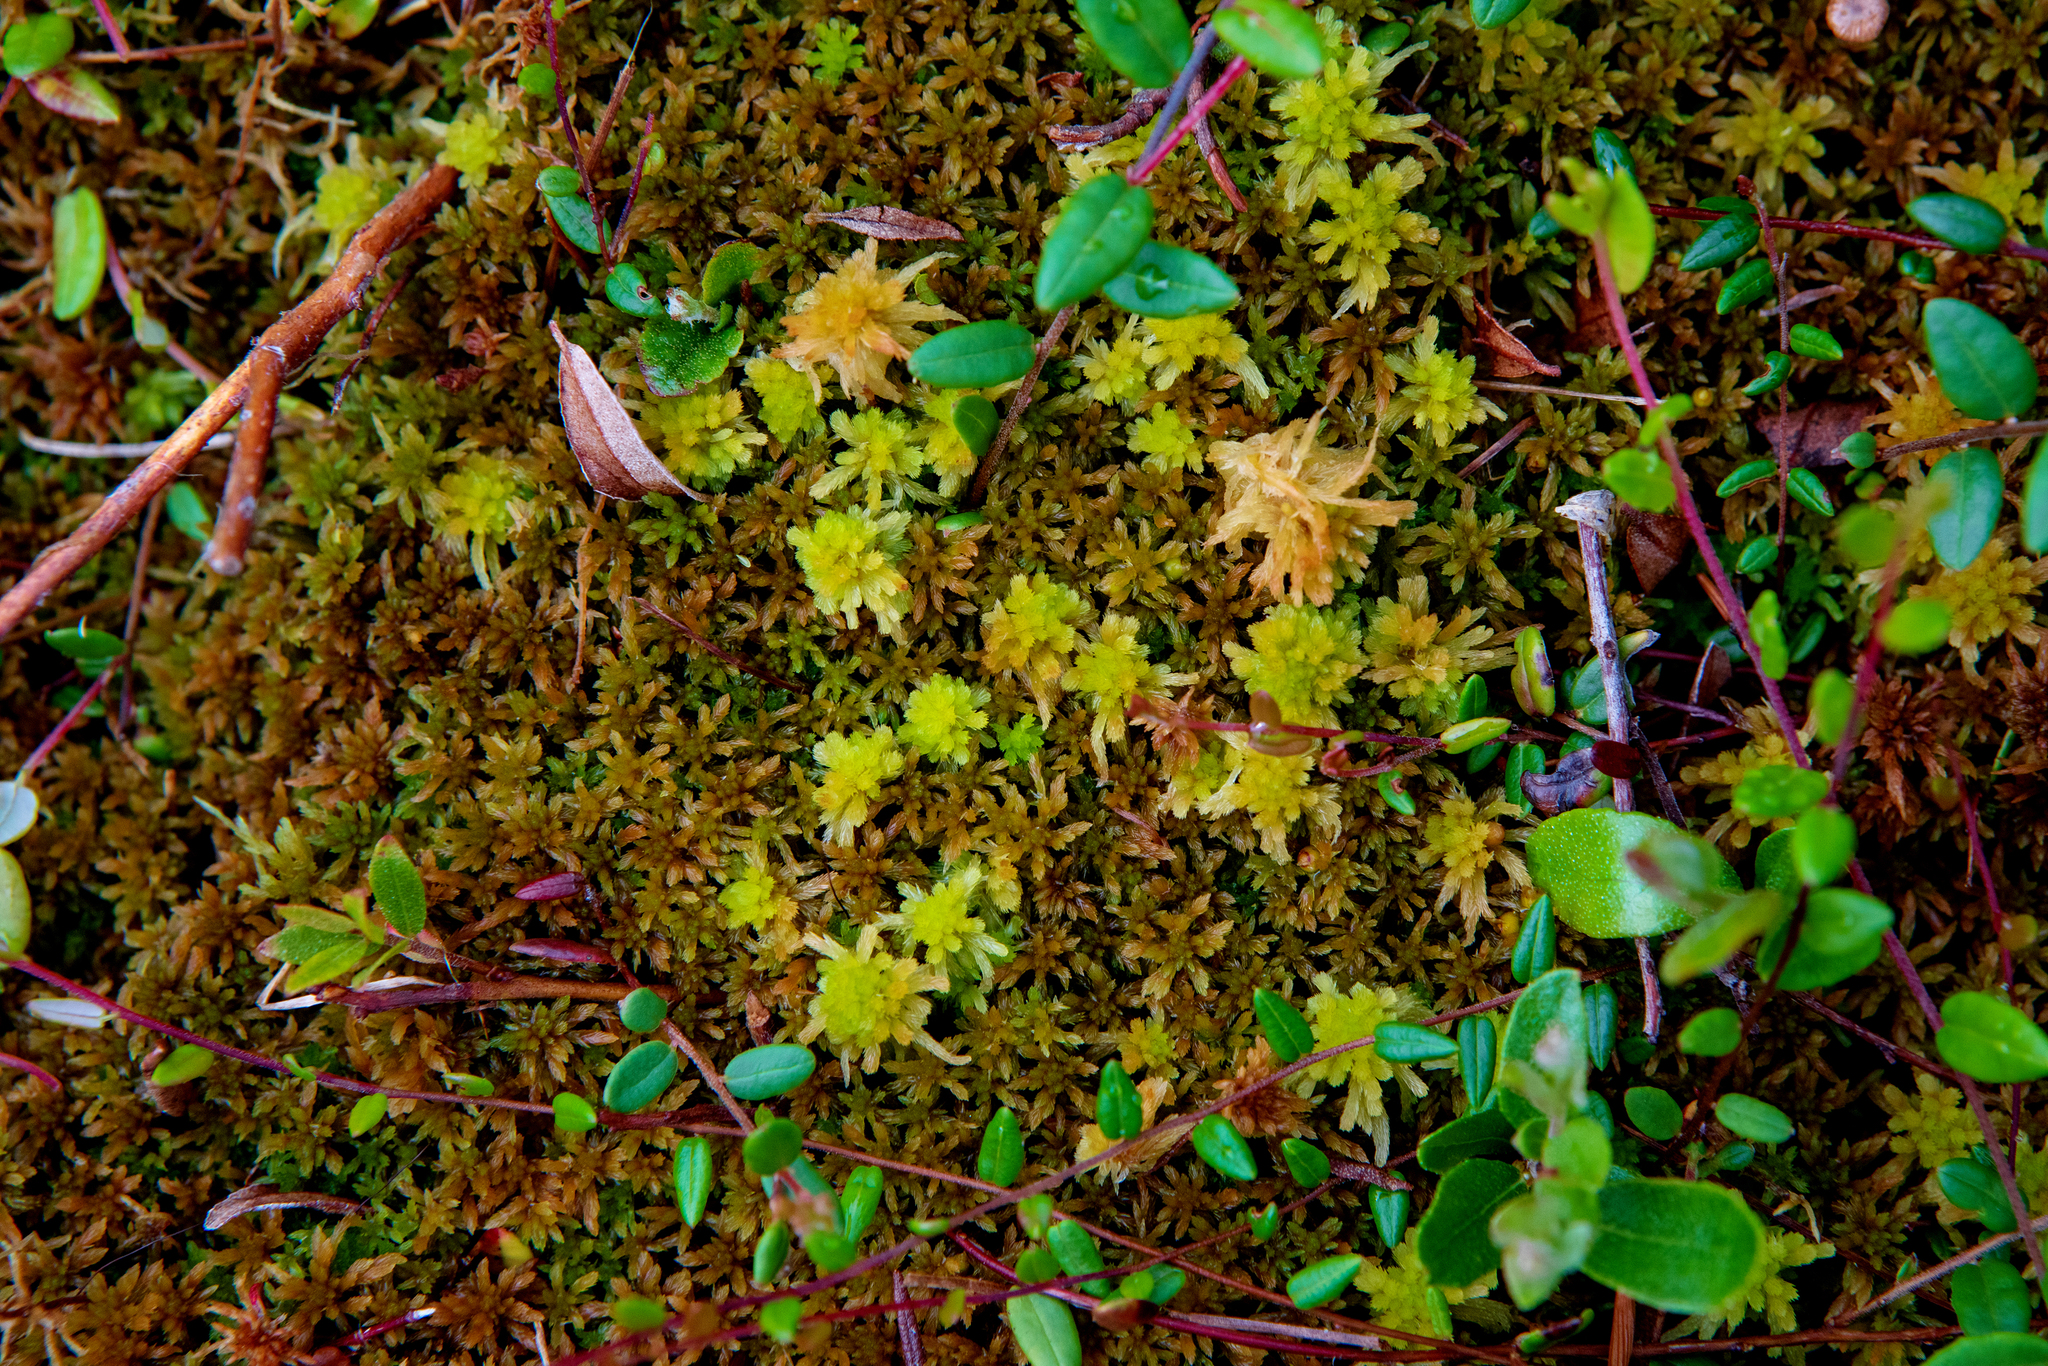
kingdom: Plantae
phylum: Bryophyta
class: Sphagnopsida
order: Sphagnales
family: Sphagnaceae
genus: Sphagnum
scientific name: Sphagnum angustifolium
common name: Narrow-leaved peat moss
